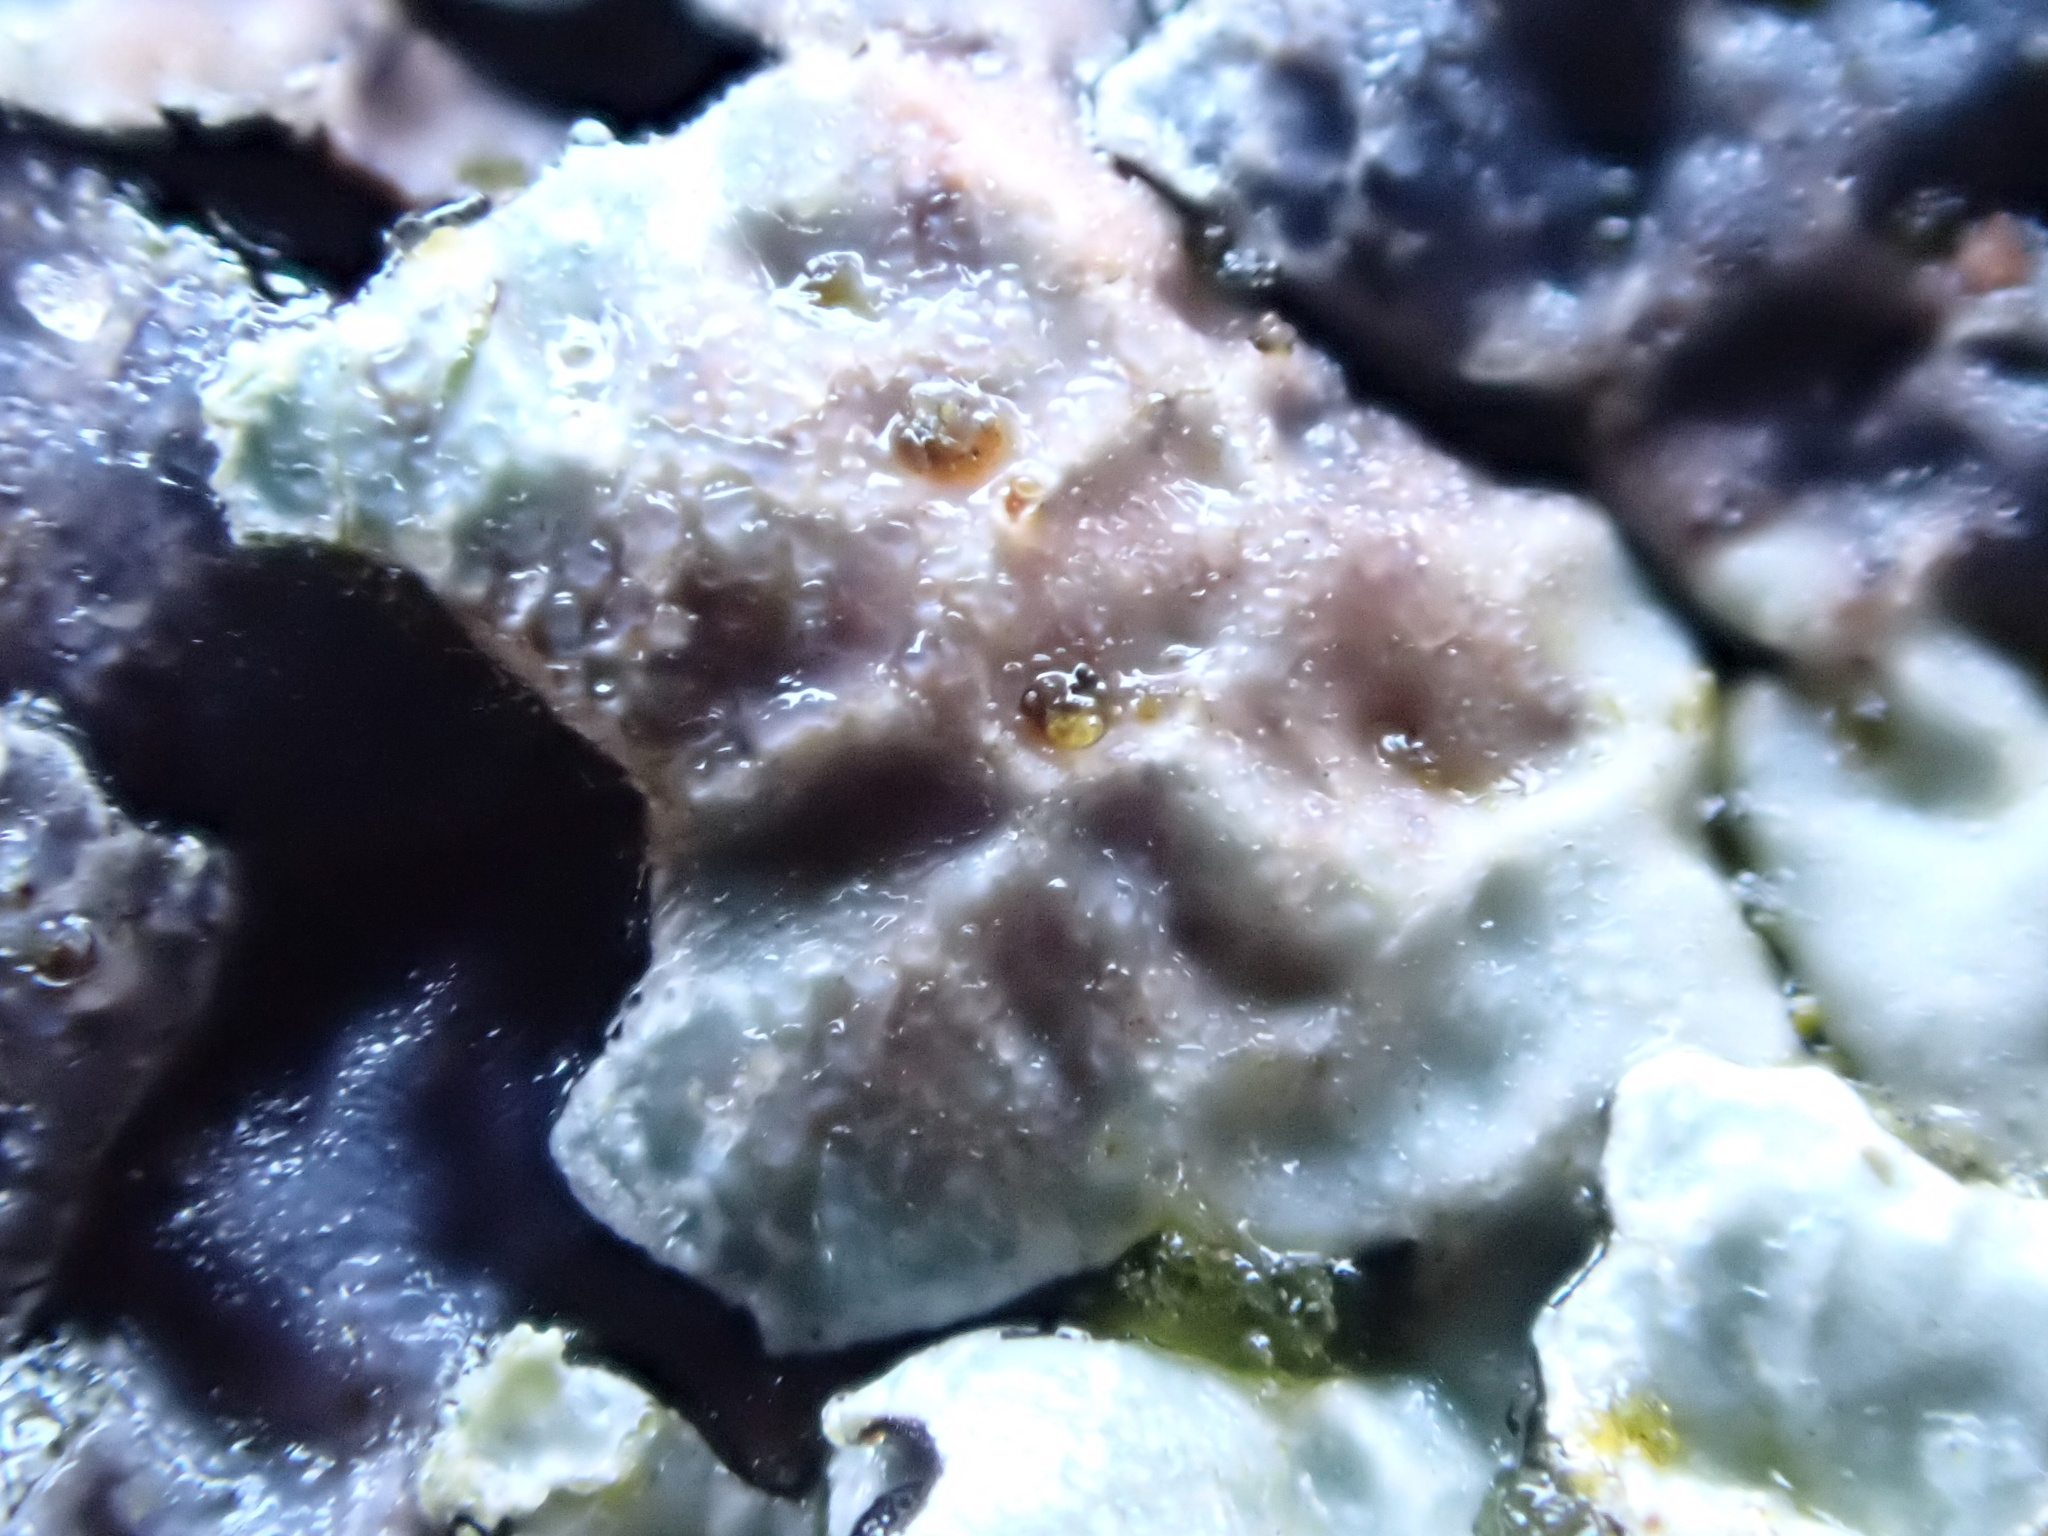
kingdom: Fungi
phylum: Ascomycota
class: Lecanoromycetes
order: Lecanorales
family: Parmeliaceae
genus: Parmelia
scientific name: Parmelia sulcata
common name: Netted shield lichen
